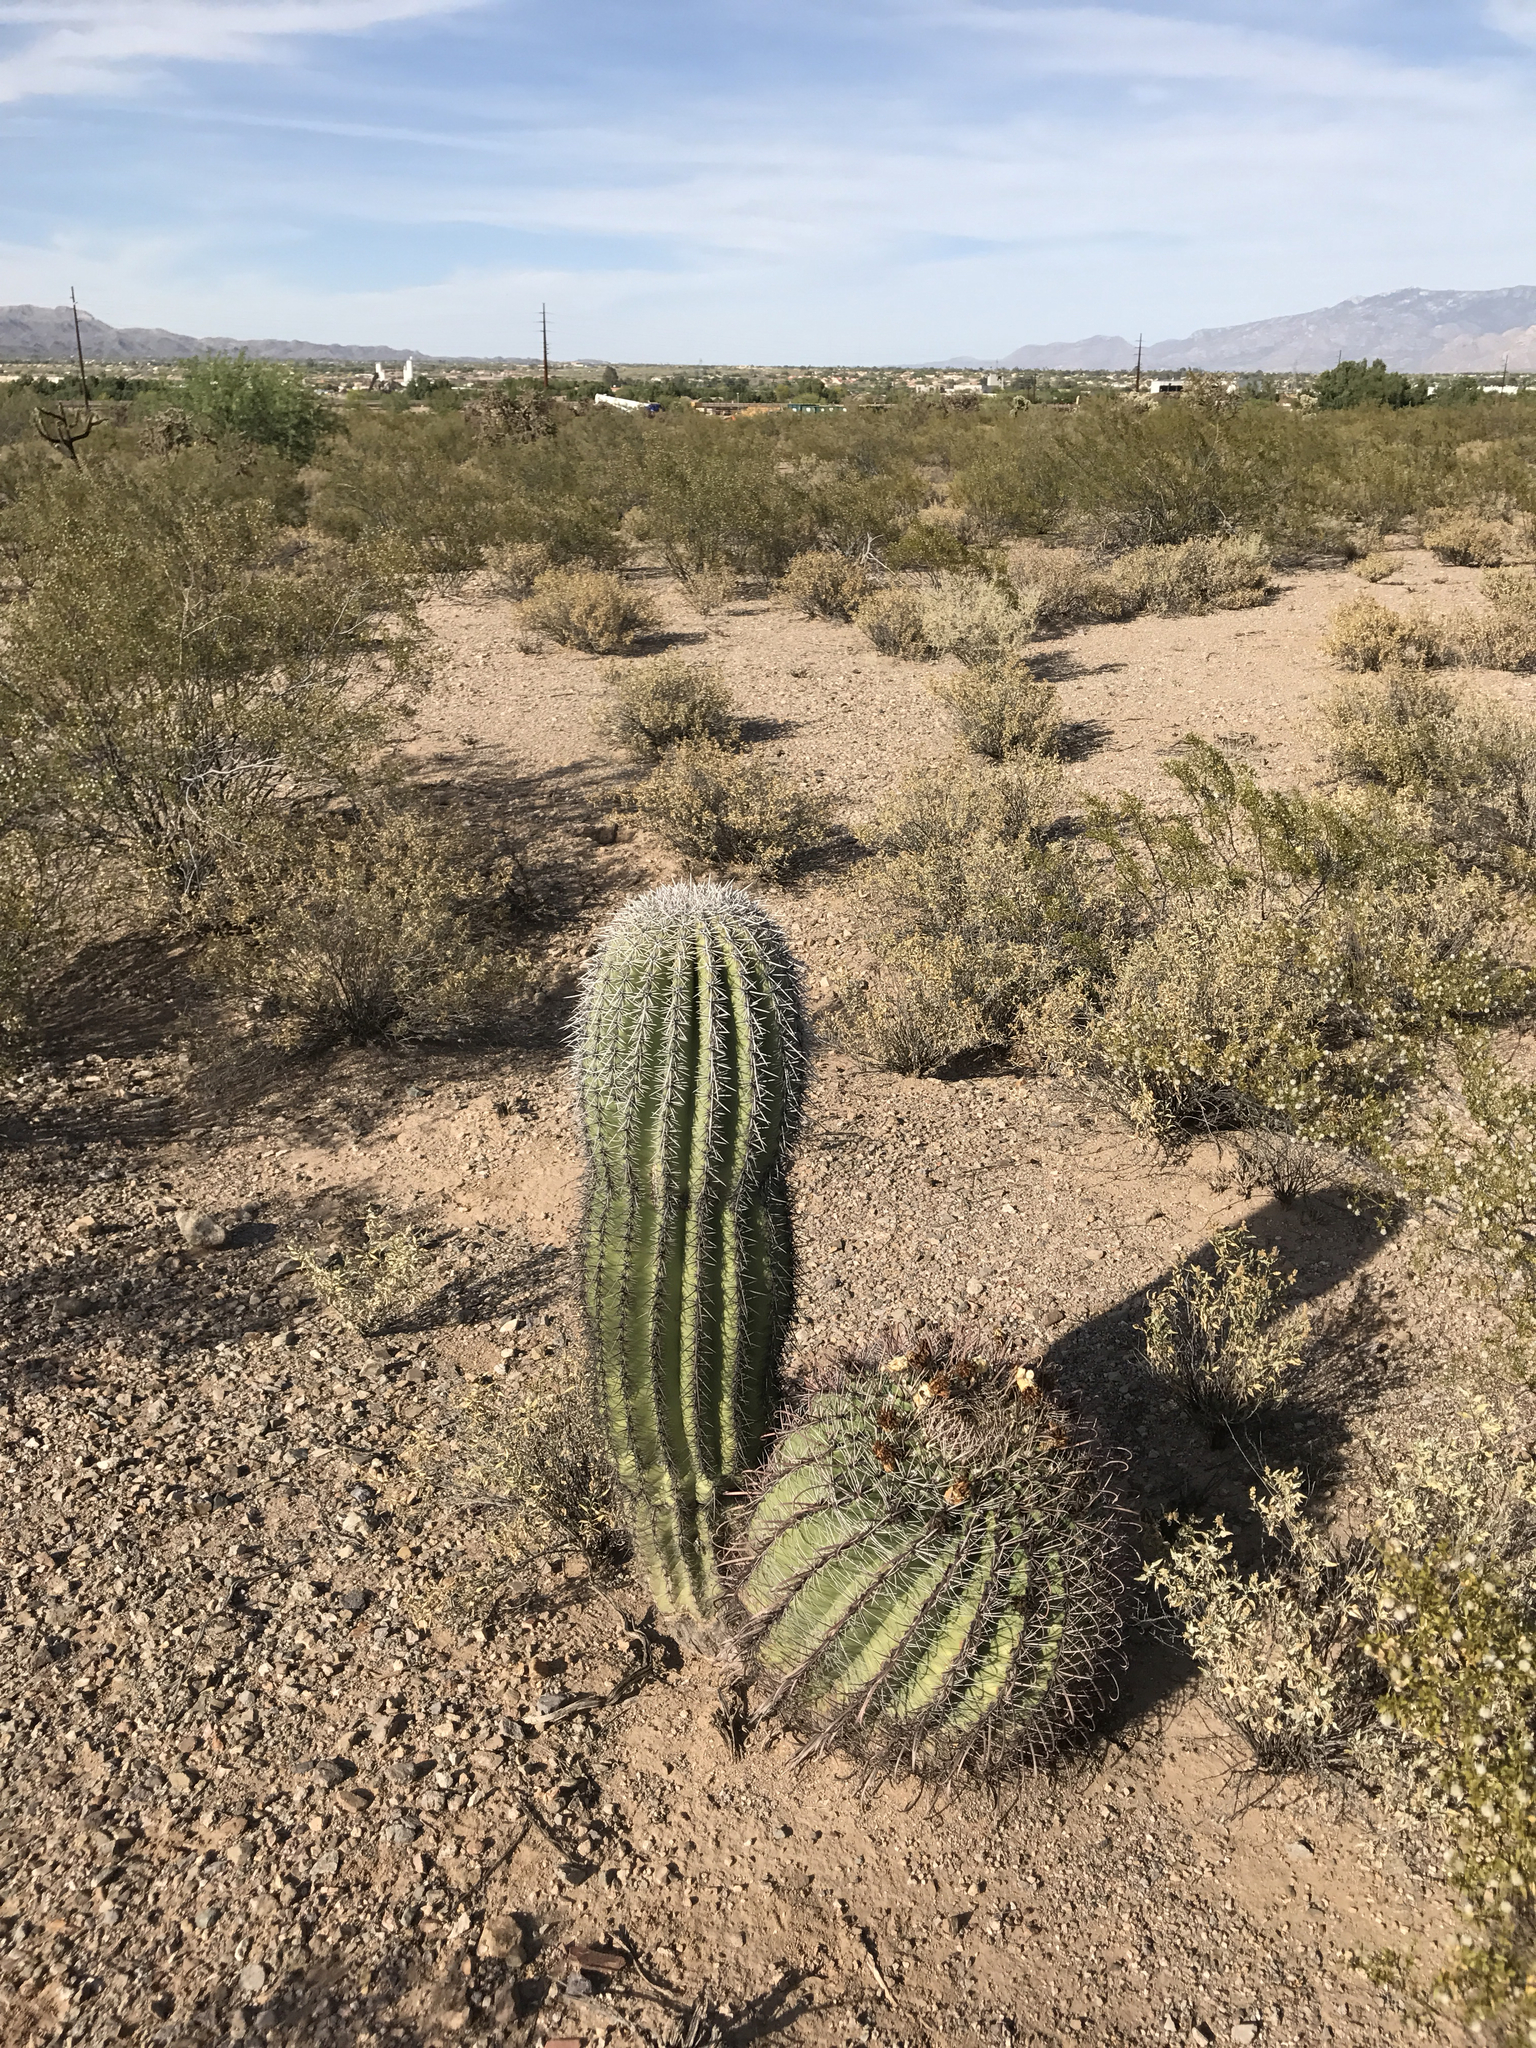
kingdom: Plantae
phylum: Tracheophyta
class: Magnoliopsida
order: Caryophyllales
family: Cactaceae
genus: Ferocactus
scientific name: Ferocactus wislizeni
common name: Candy barrel cactus
